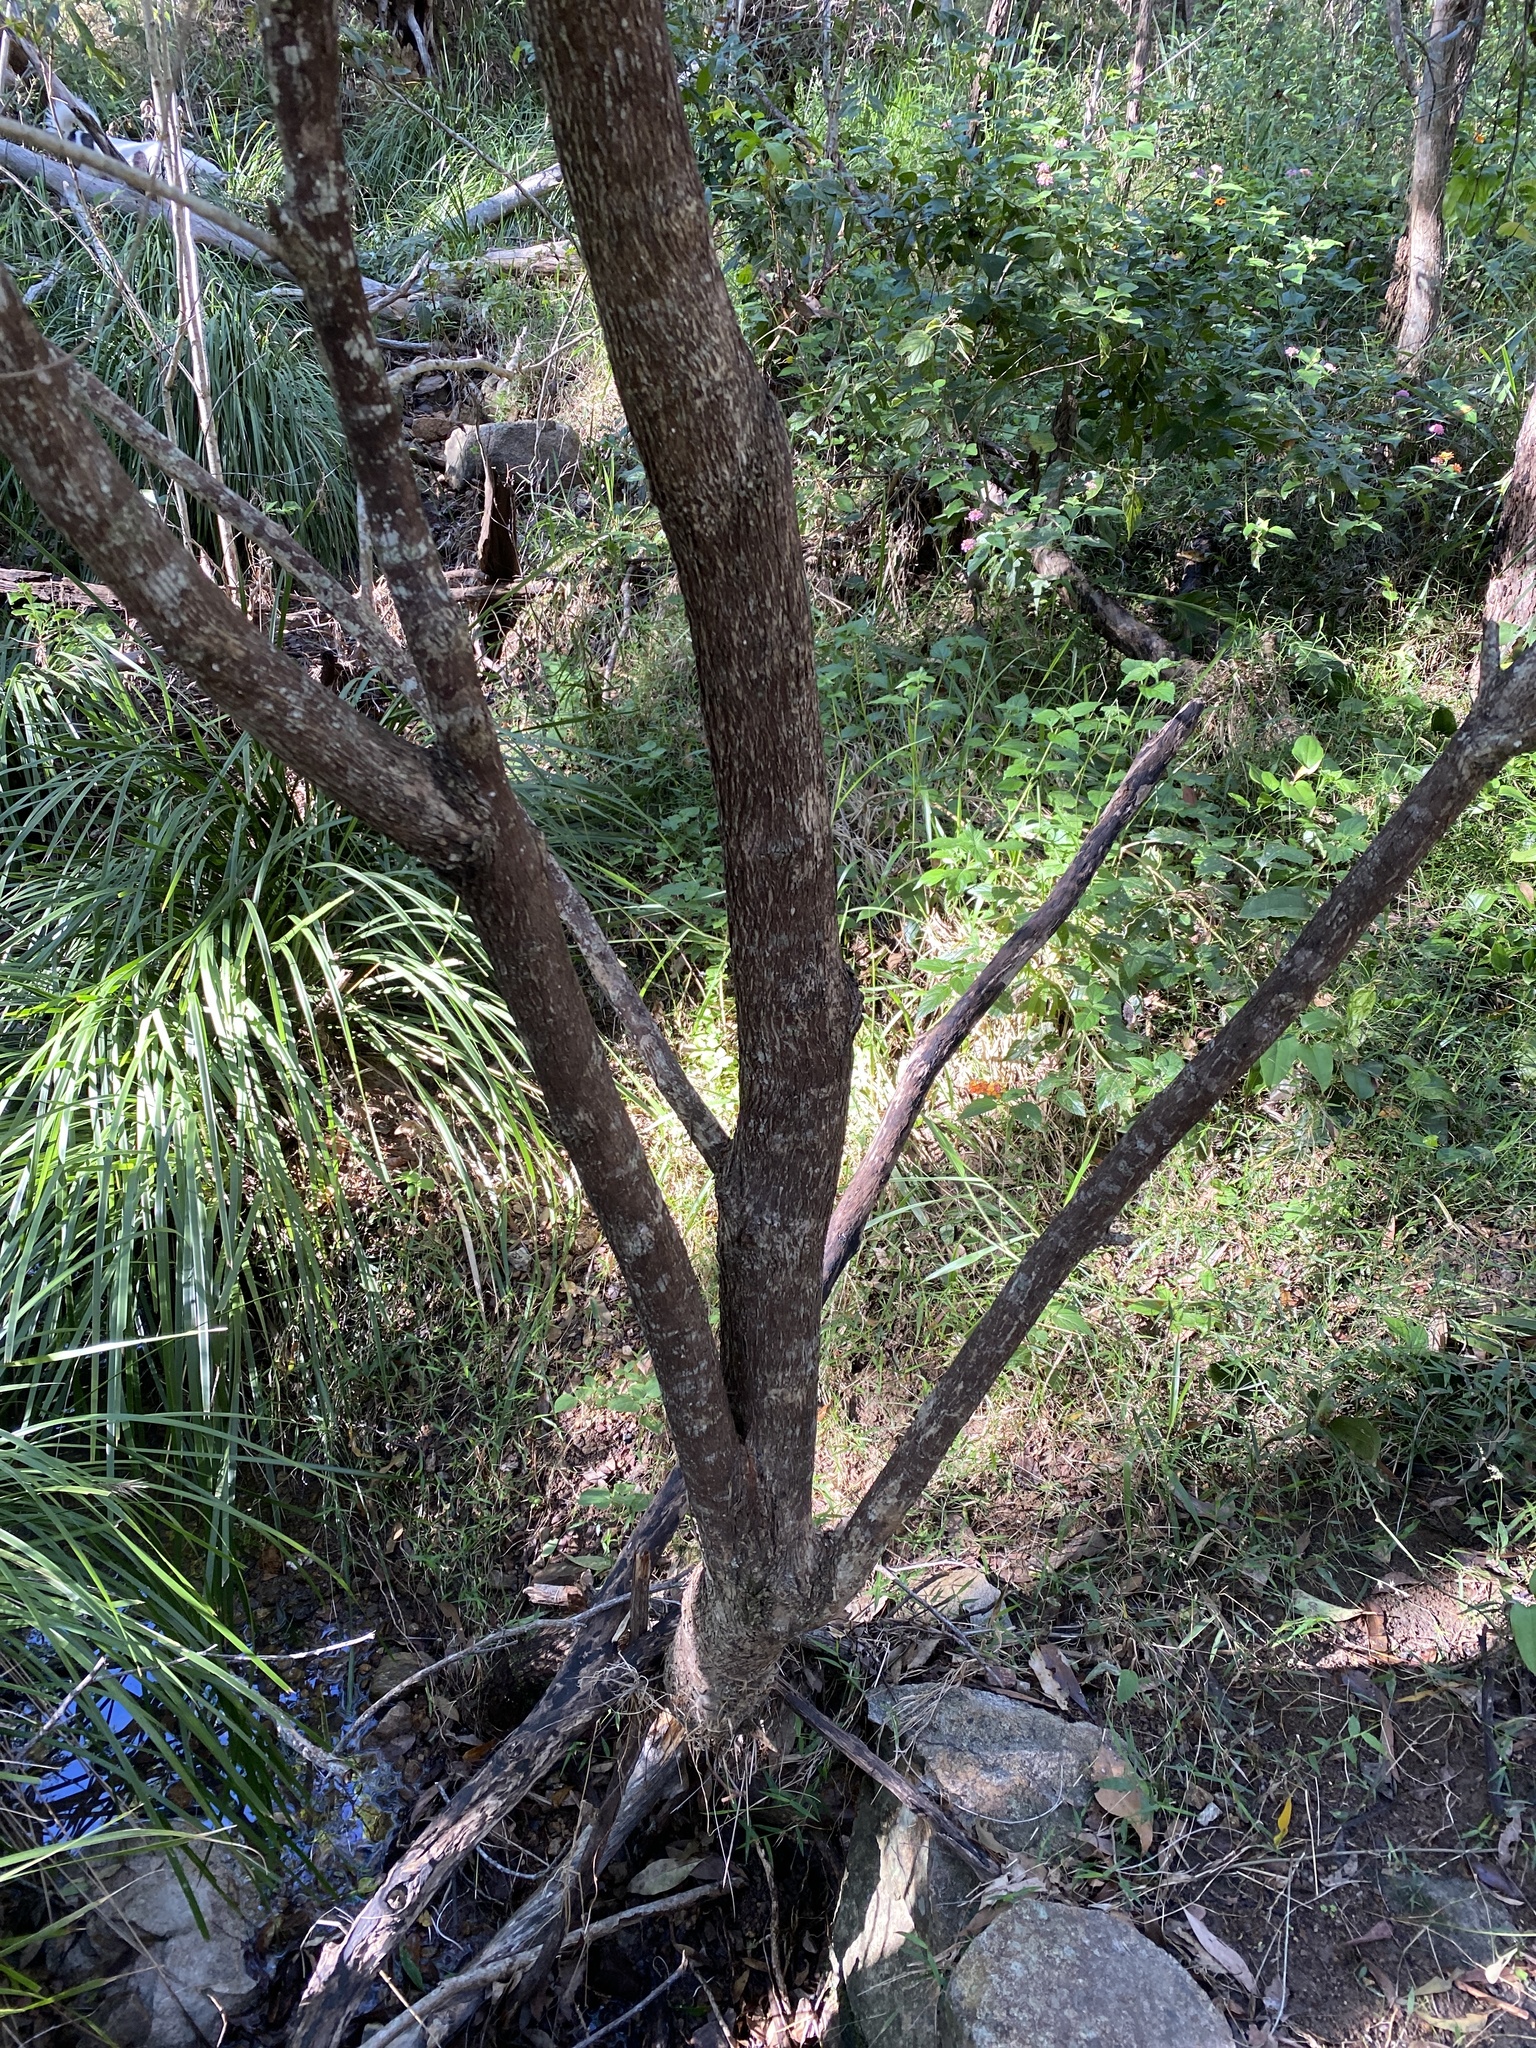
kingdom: Plantae
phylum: Tracheophyta
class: Magnoliopsida
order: Malpighiales
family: Phyllanthaceae
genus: Glochidion
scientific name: Glochidion ferdinandi
